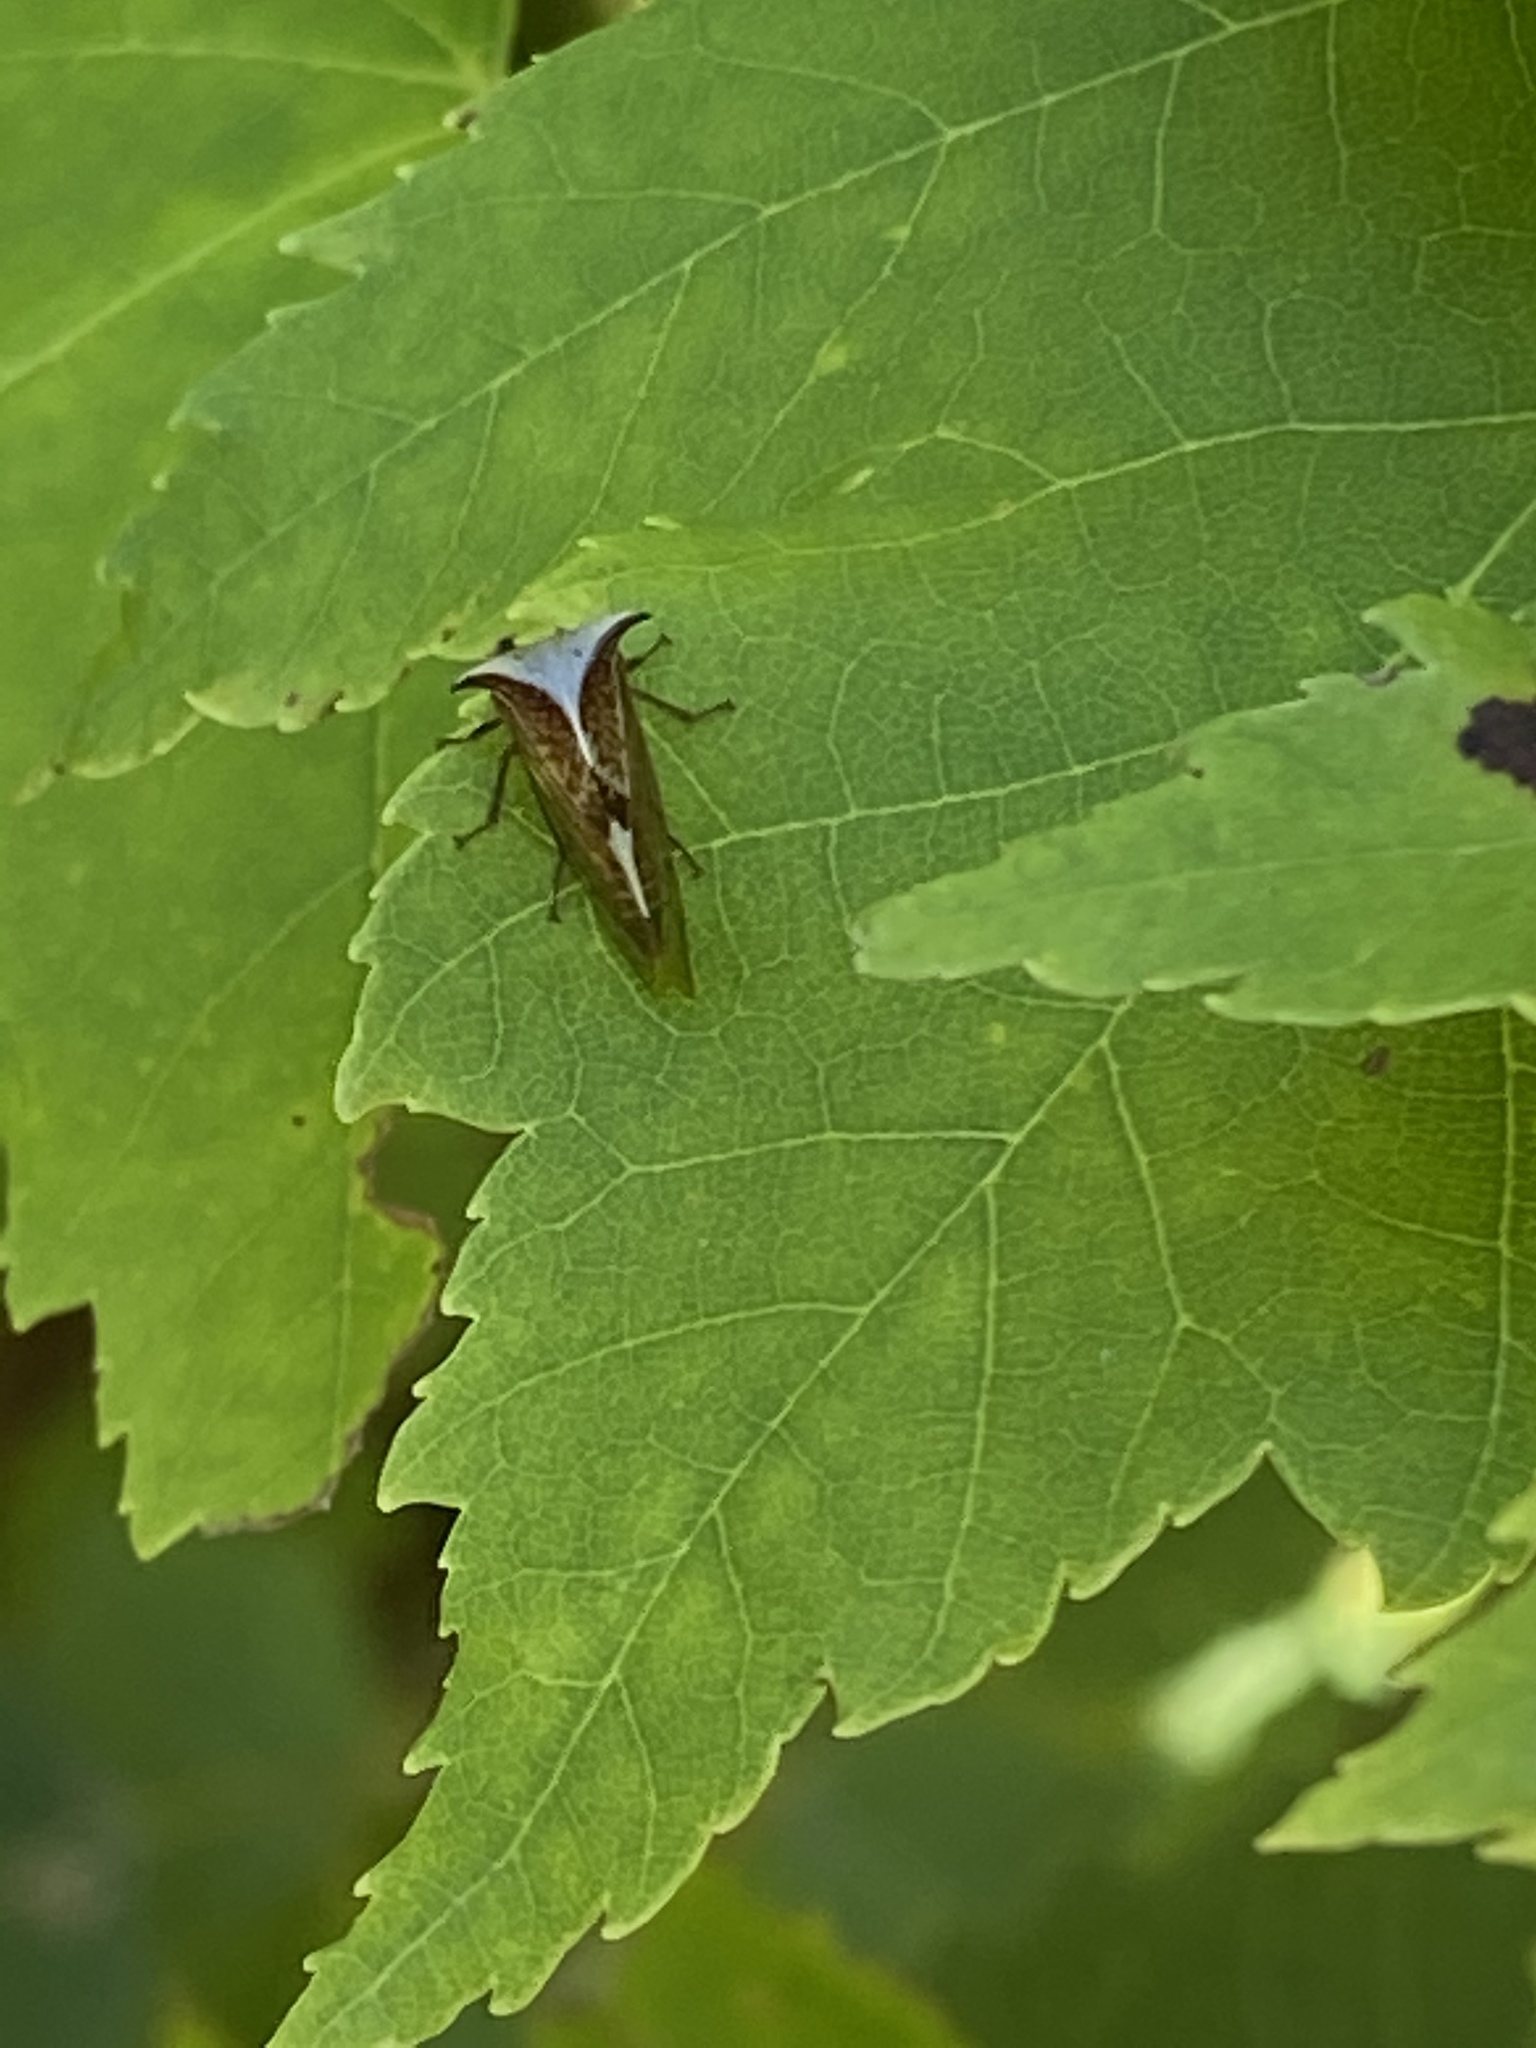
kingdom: Animalia
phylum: Arthropoda
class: Insecta
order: Hemiptera
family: Membracidae
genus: Stictocephala
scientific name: Stictocephala albescens
